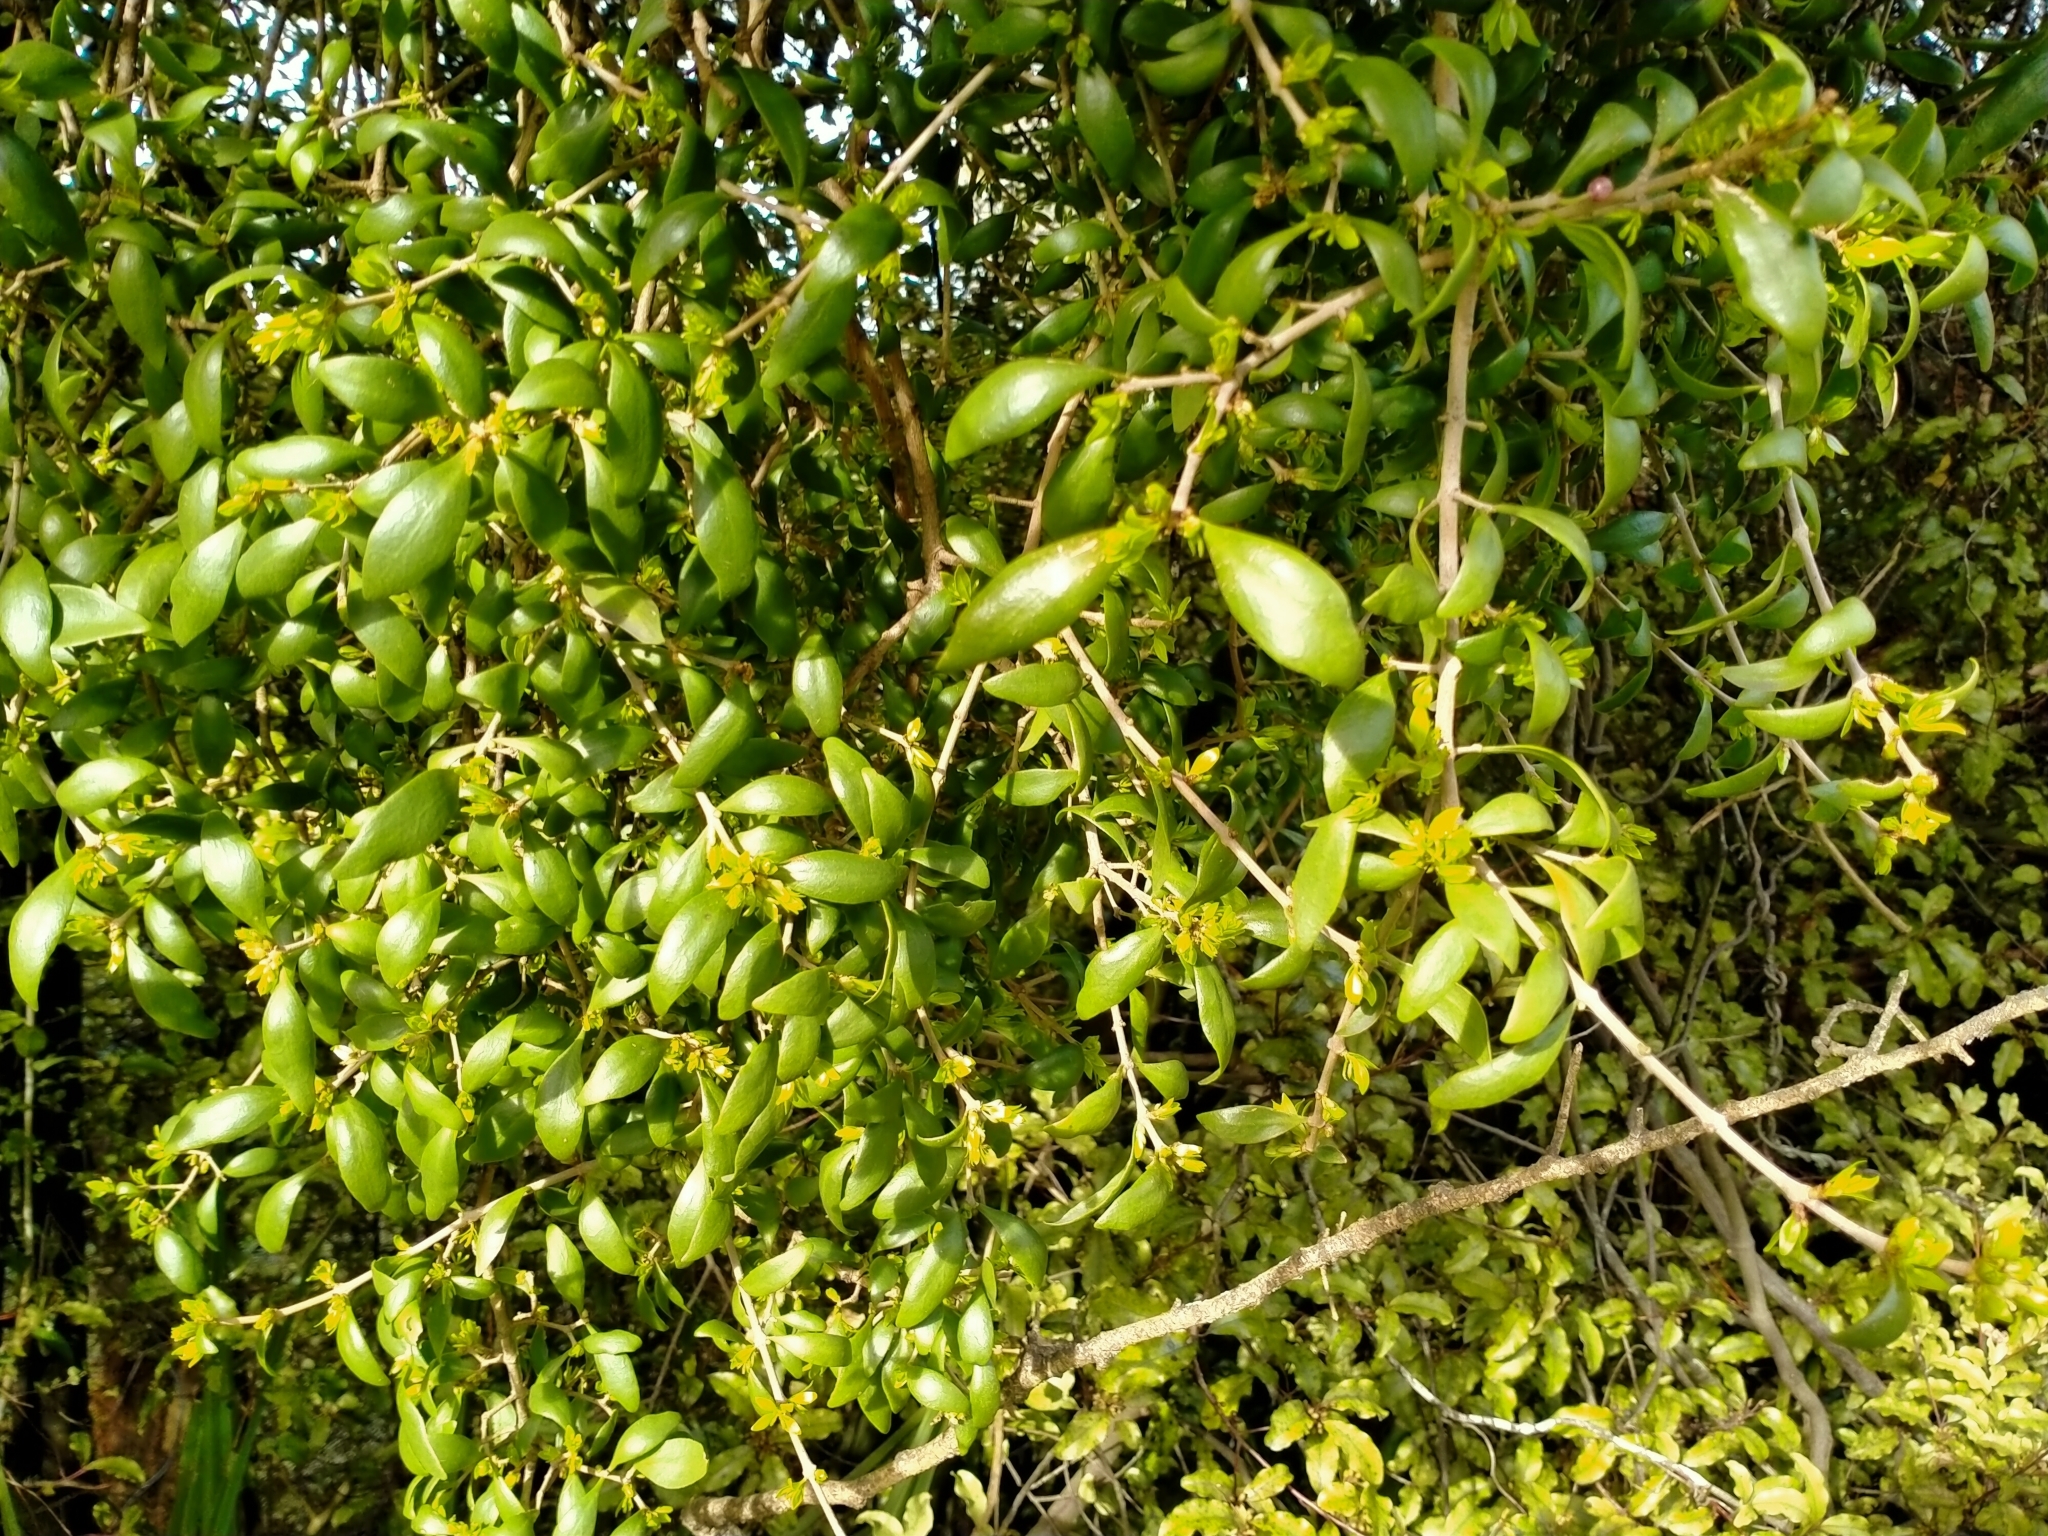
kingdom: Plantae
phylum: Tracheophyta
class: Magnoliopsida
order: Santalales
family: Loranthaceae
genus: Tupeia
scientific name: Tupeia antarctica
